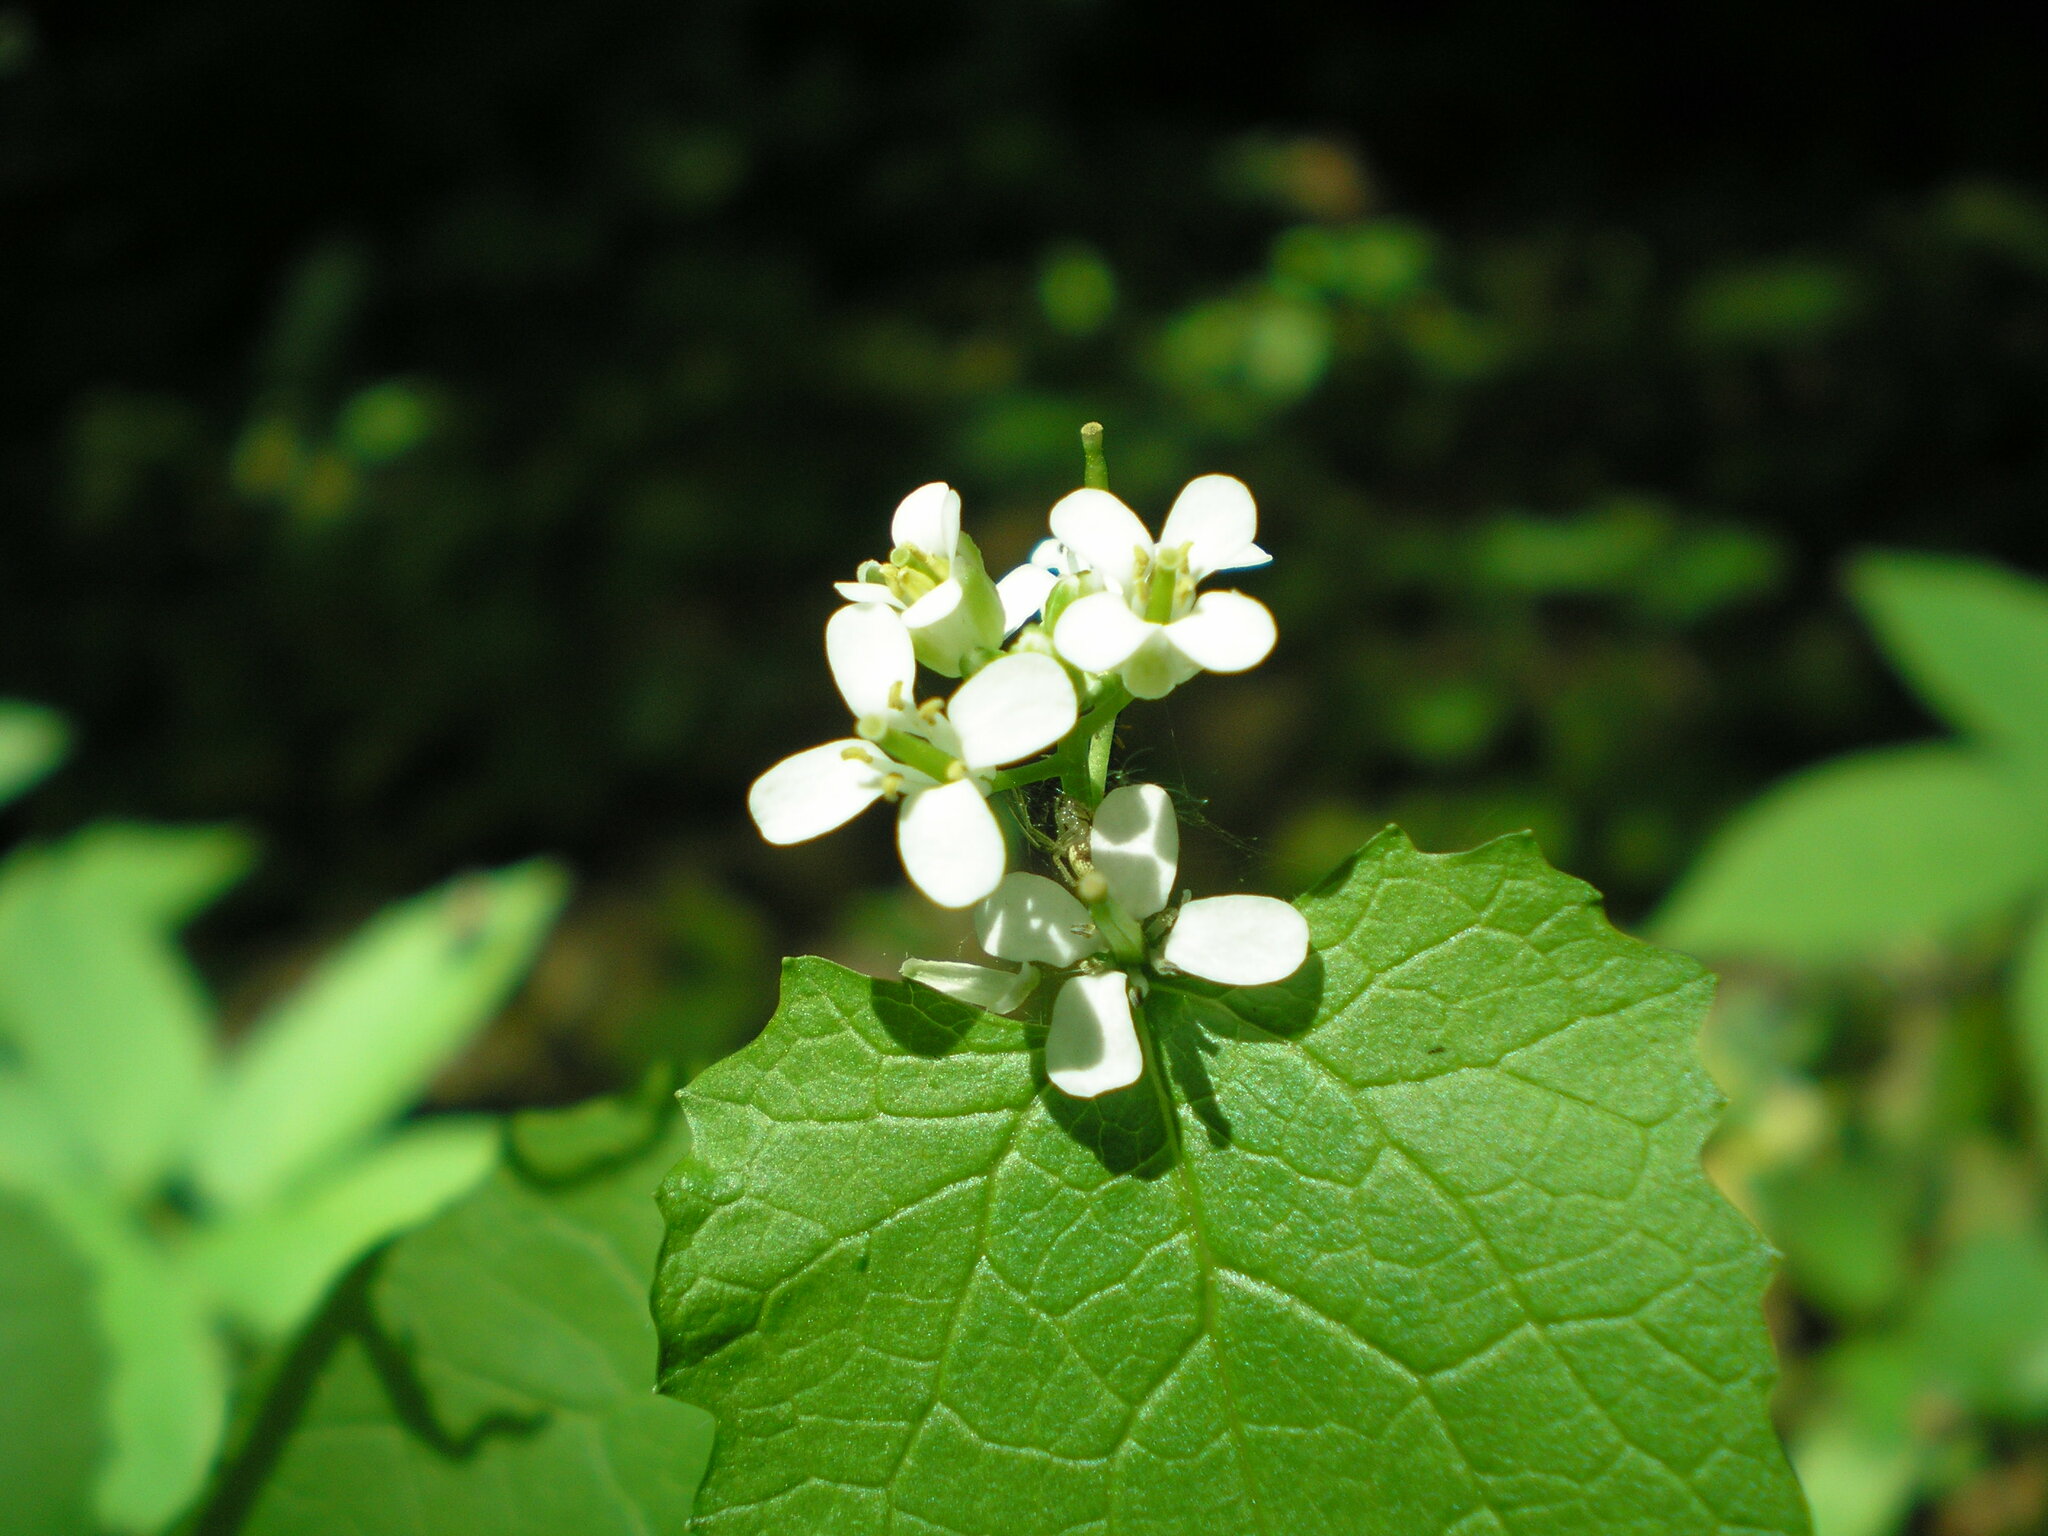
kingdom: Plantae
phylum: Tracheophyta
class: Magnoliopsida
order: Brassicales
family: Brassicaceae
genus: Alliaria
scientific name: Alliaria petiolata
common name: Garlic mustard
